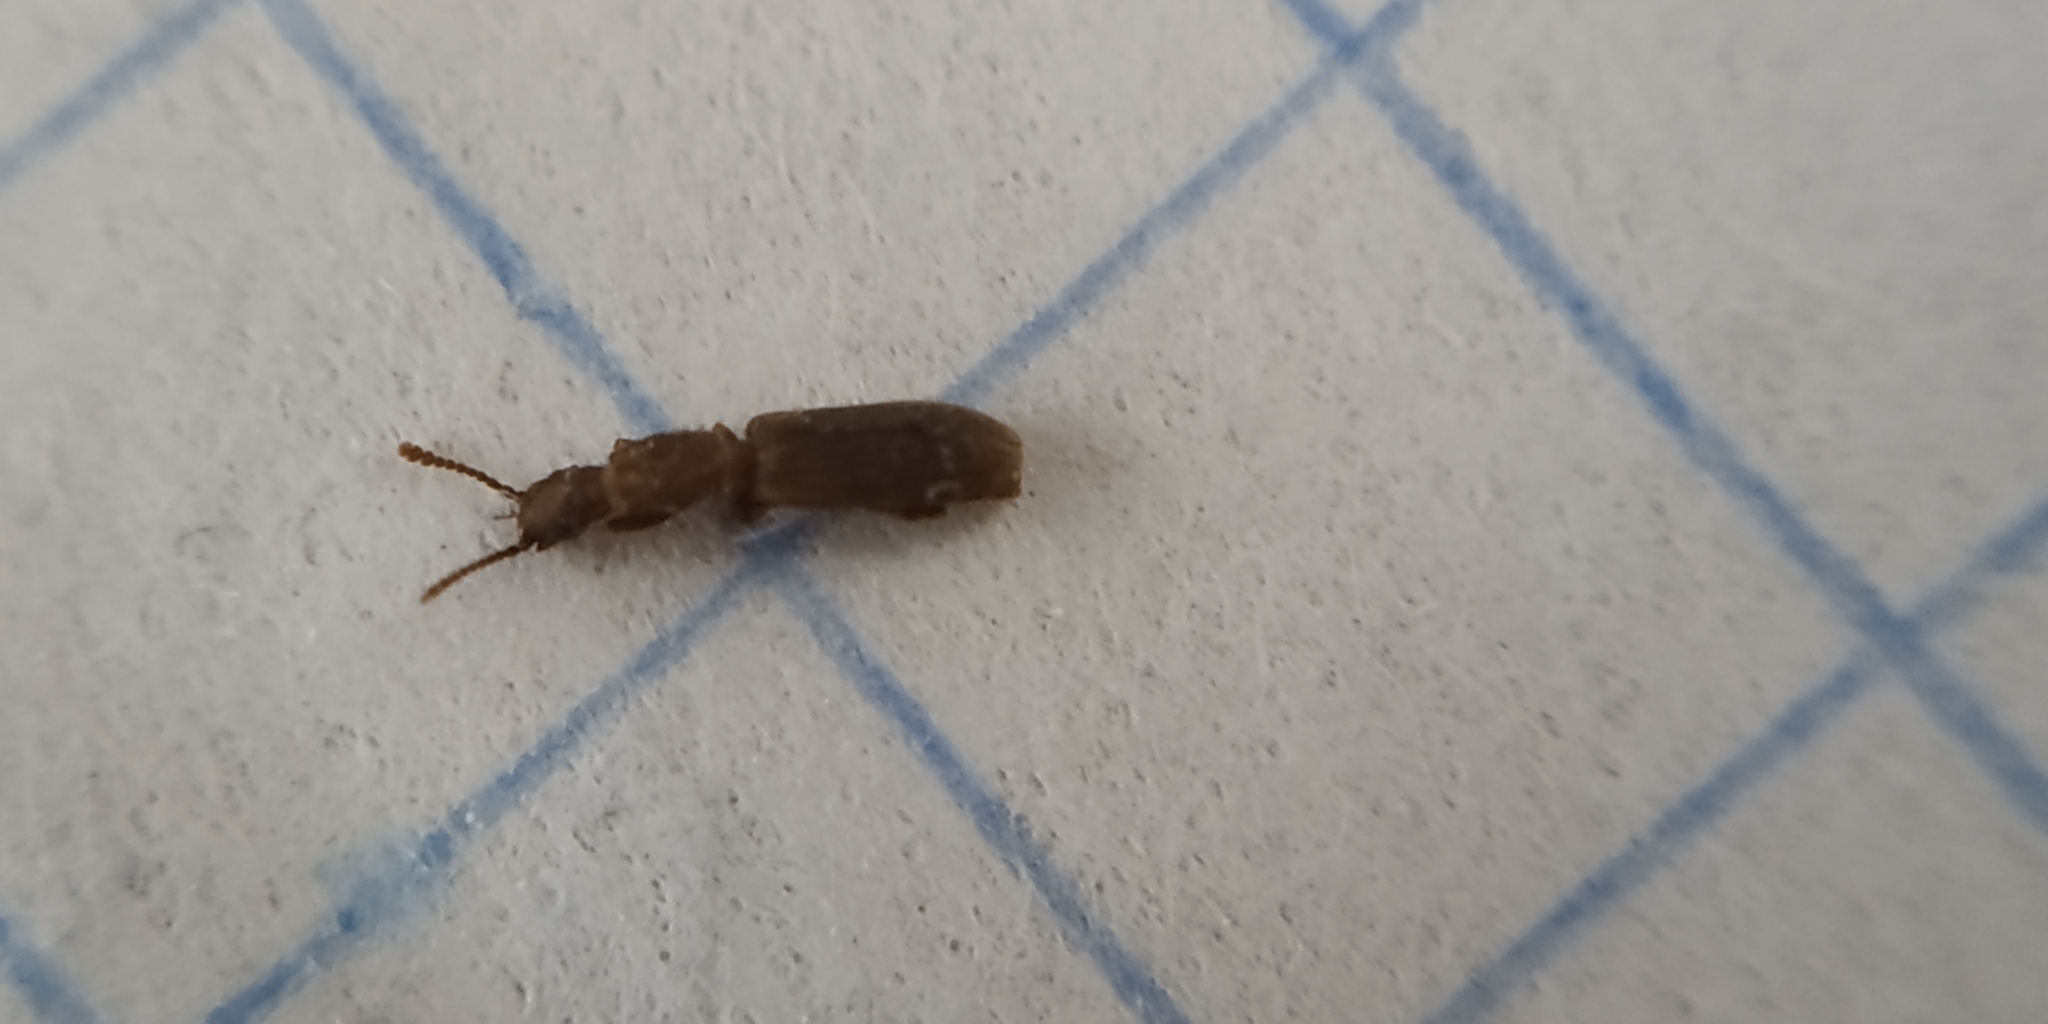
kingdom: Animalia
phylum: Arthropoda
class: Insecta
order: Coleoptera
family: Silvanidae
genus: Oryzaephilus
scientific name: Oryzaephilus surinamensis
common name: Sawtoothed grain beetle
